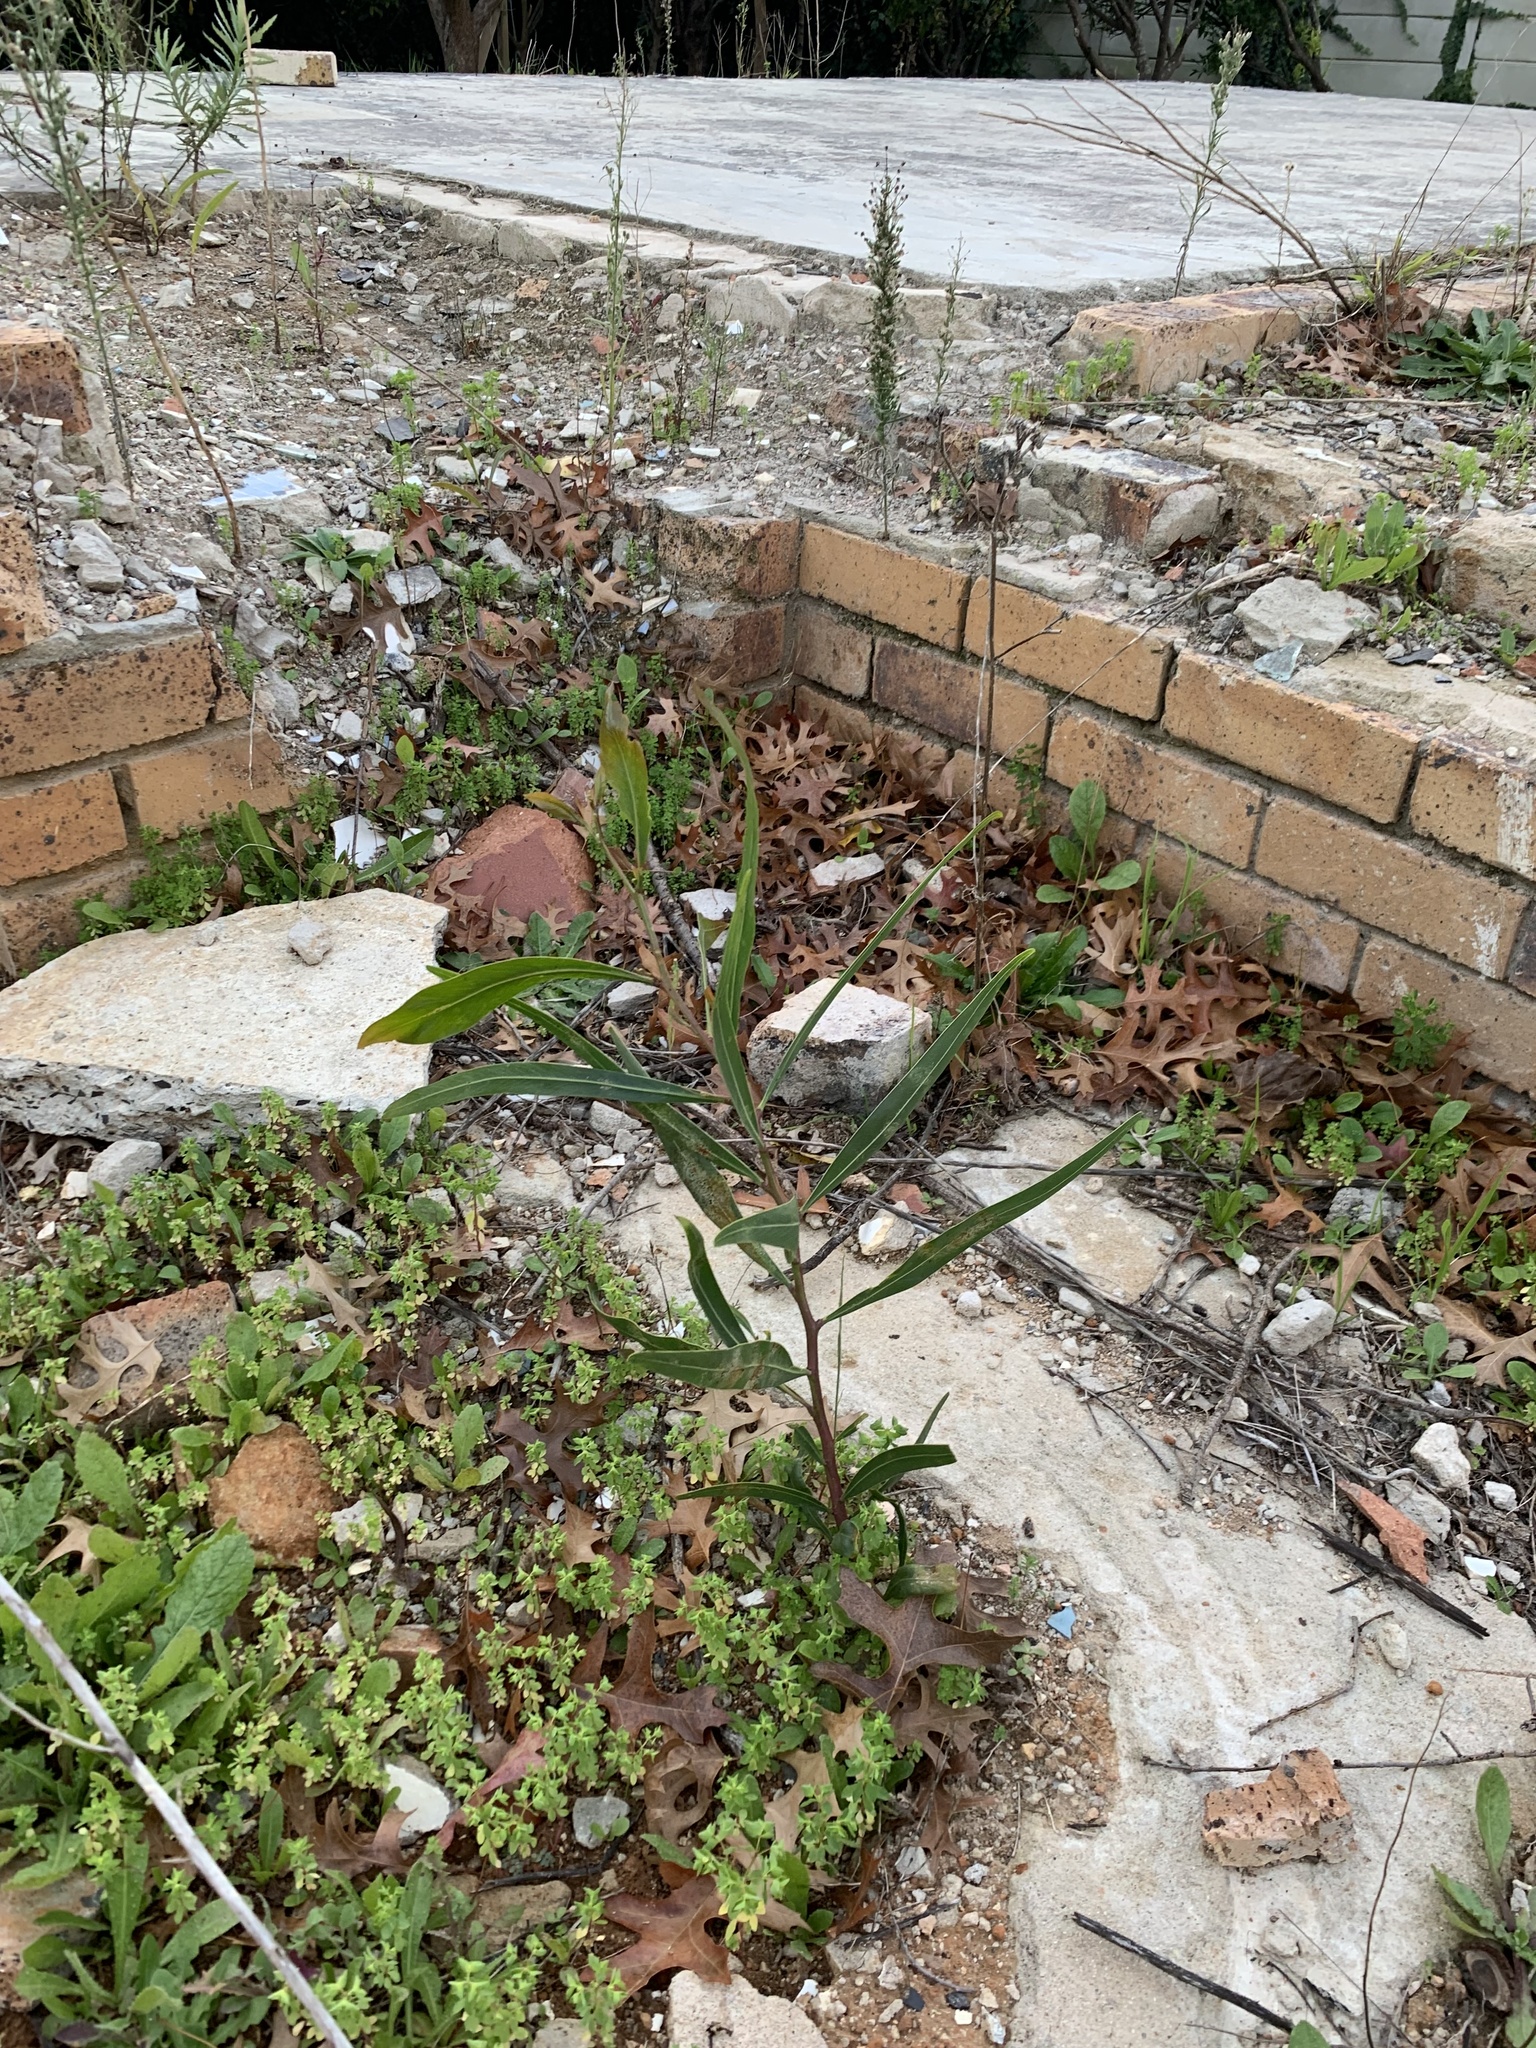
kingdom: Plantae
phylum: Tracheophyta
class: Magnoliopsida
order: Fabales
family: Fabaceae
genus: Acacia
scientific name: Acacia saligna
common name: Orange wattle
